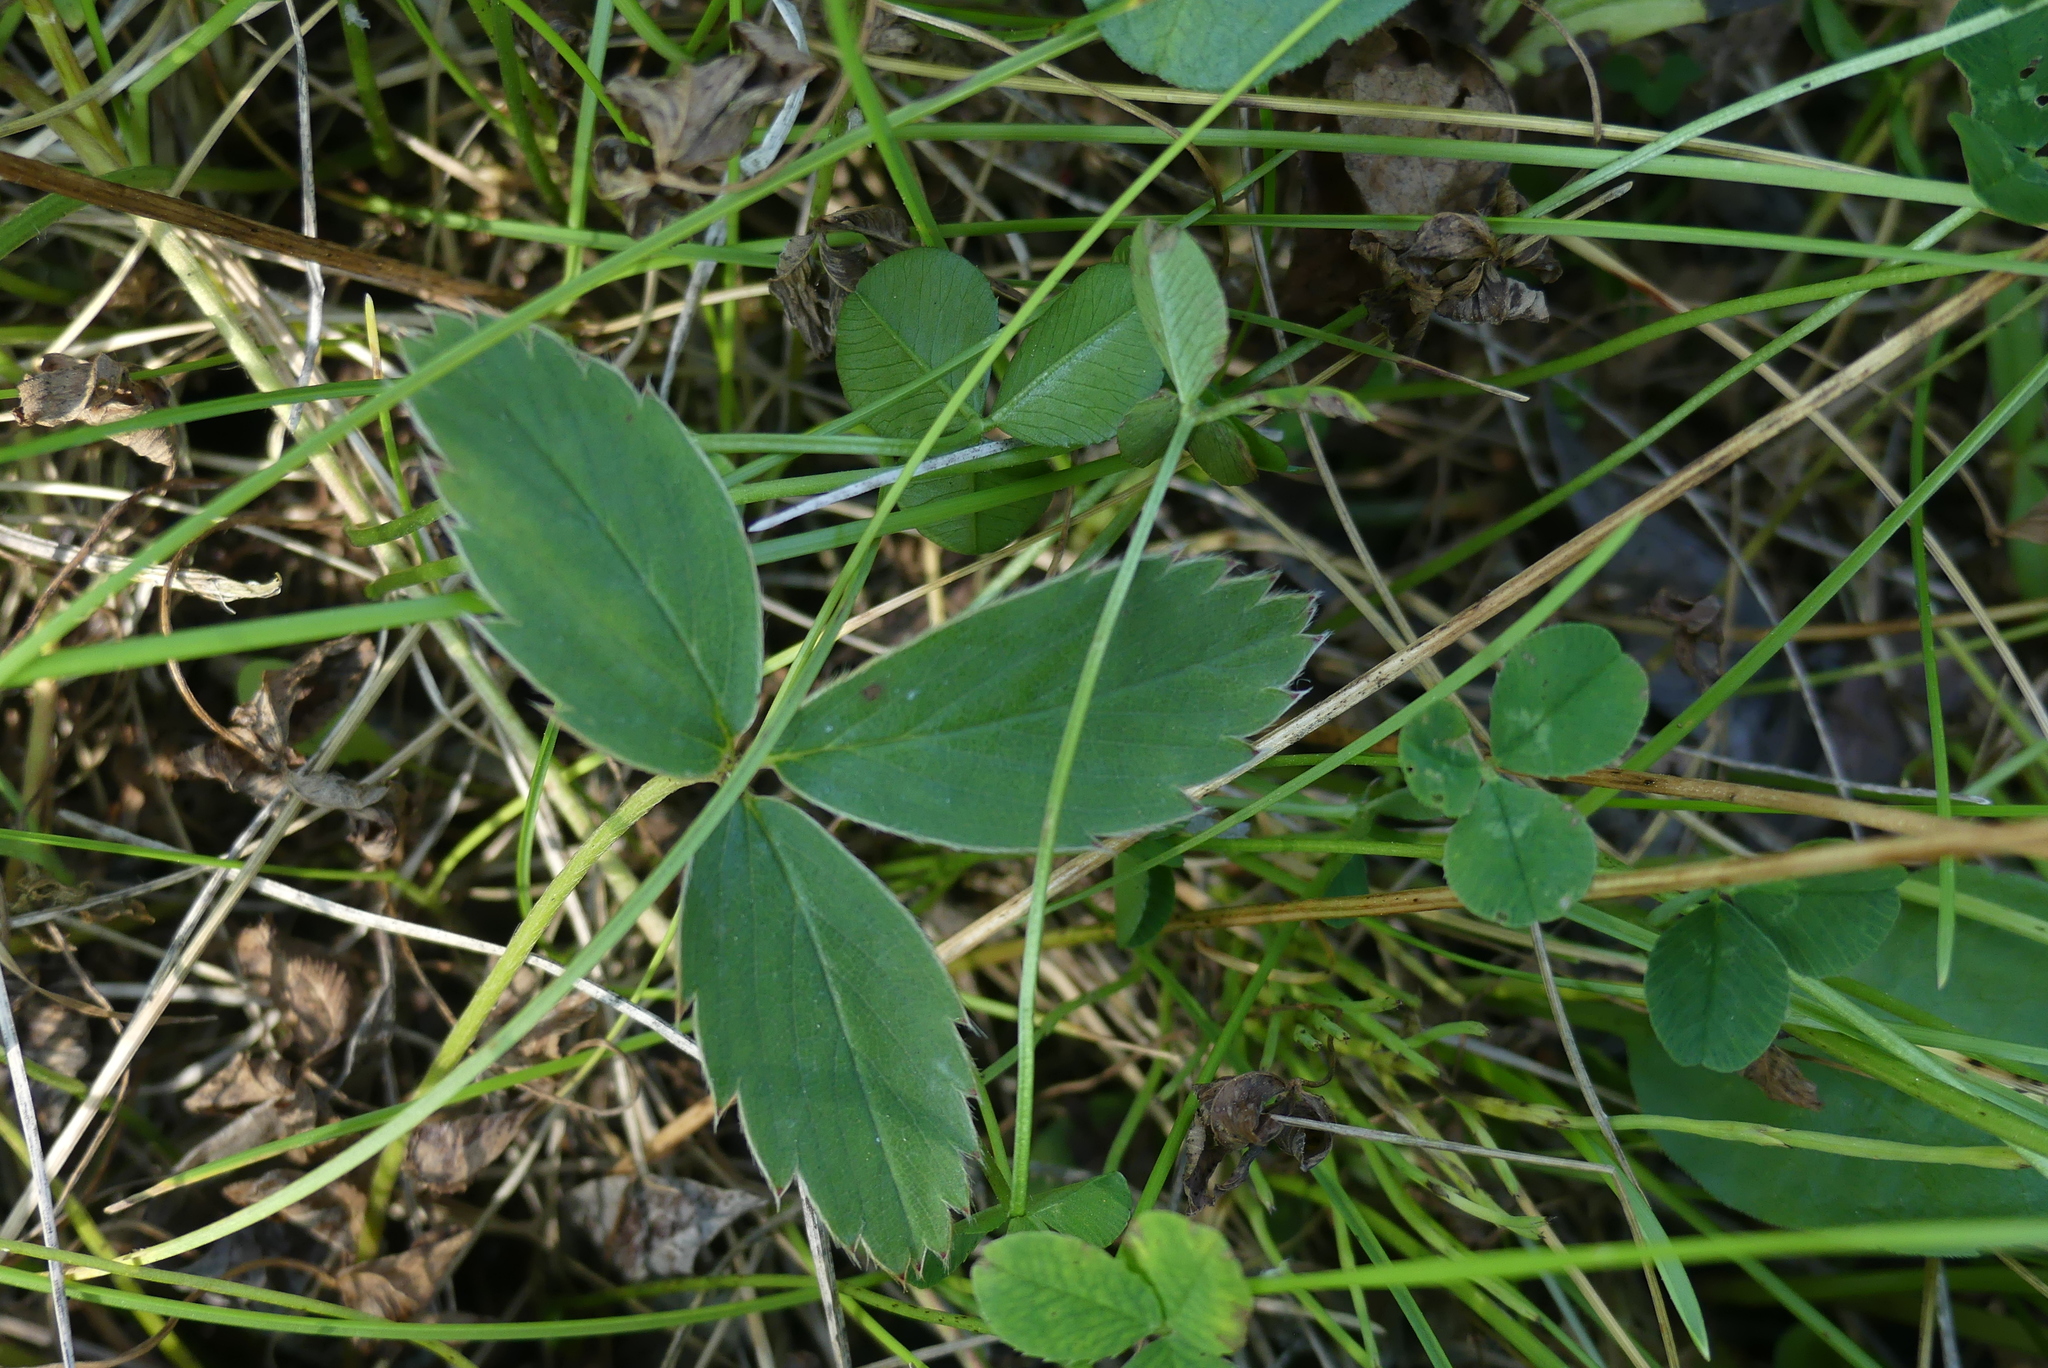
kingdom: Plantae
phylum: Tracheophyta
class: Magnoliopsida
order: Rosales
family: Rosaceae
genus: Fragaria
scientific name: Fragaria virginiana
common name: Thickleaved wild strawberry
